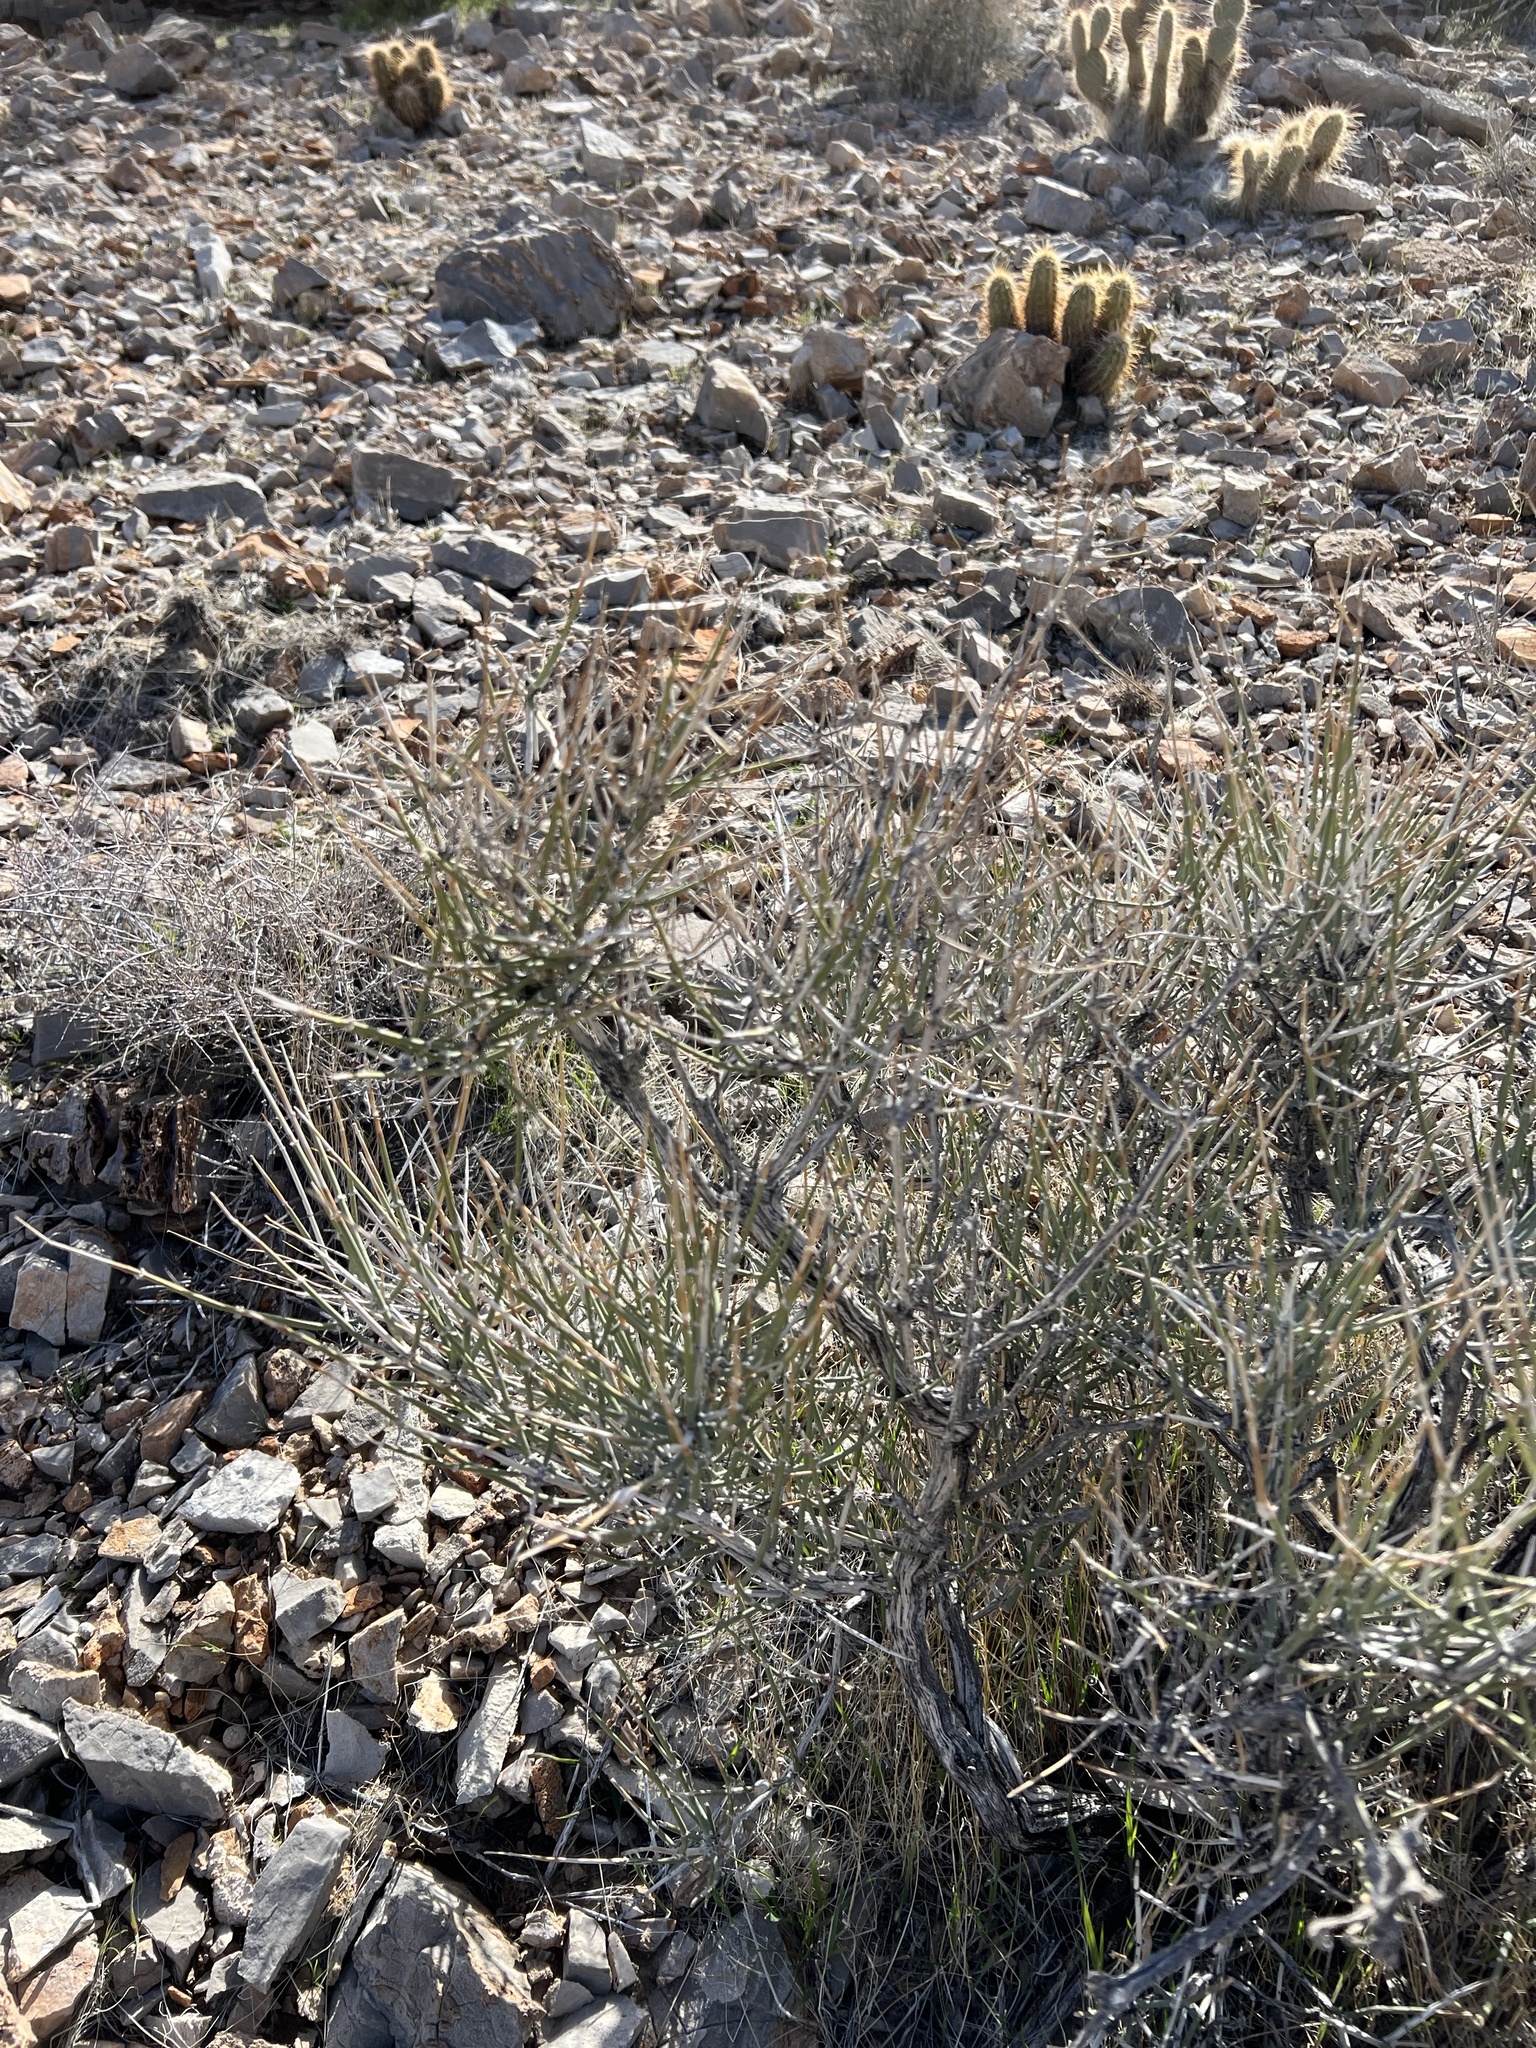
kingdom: Plantae
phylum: Tracheophyta
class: Gnetopsida
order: Ephedrales
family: Ephedraceae
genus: Ephedra
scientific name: Ephedra nevadensis
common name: Gray ephedra
